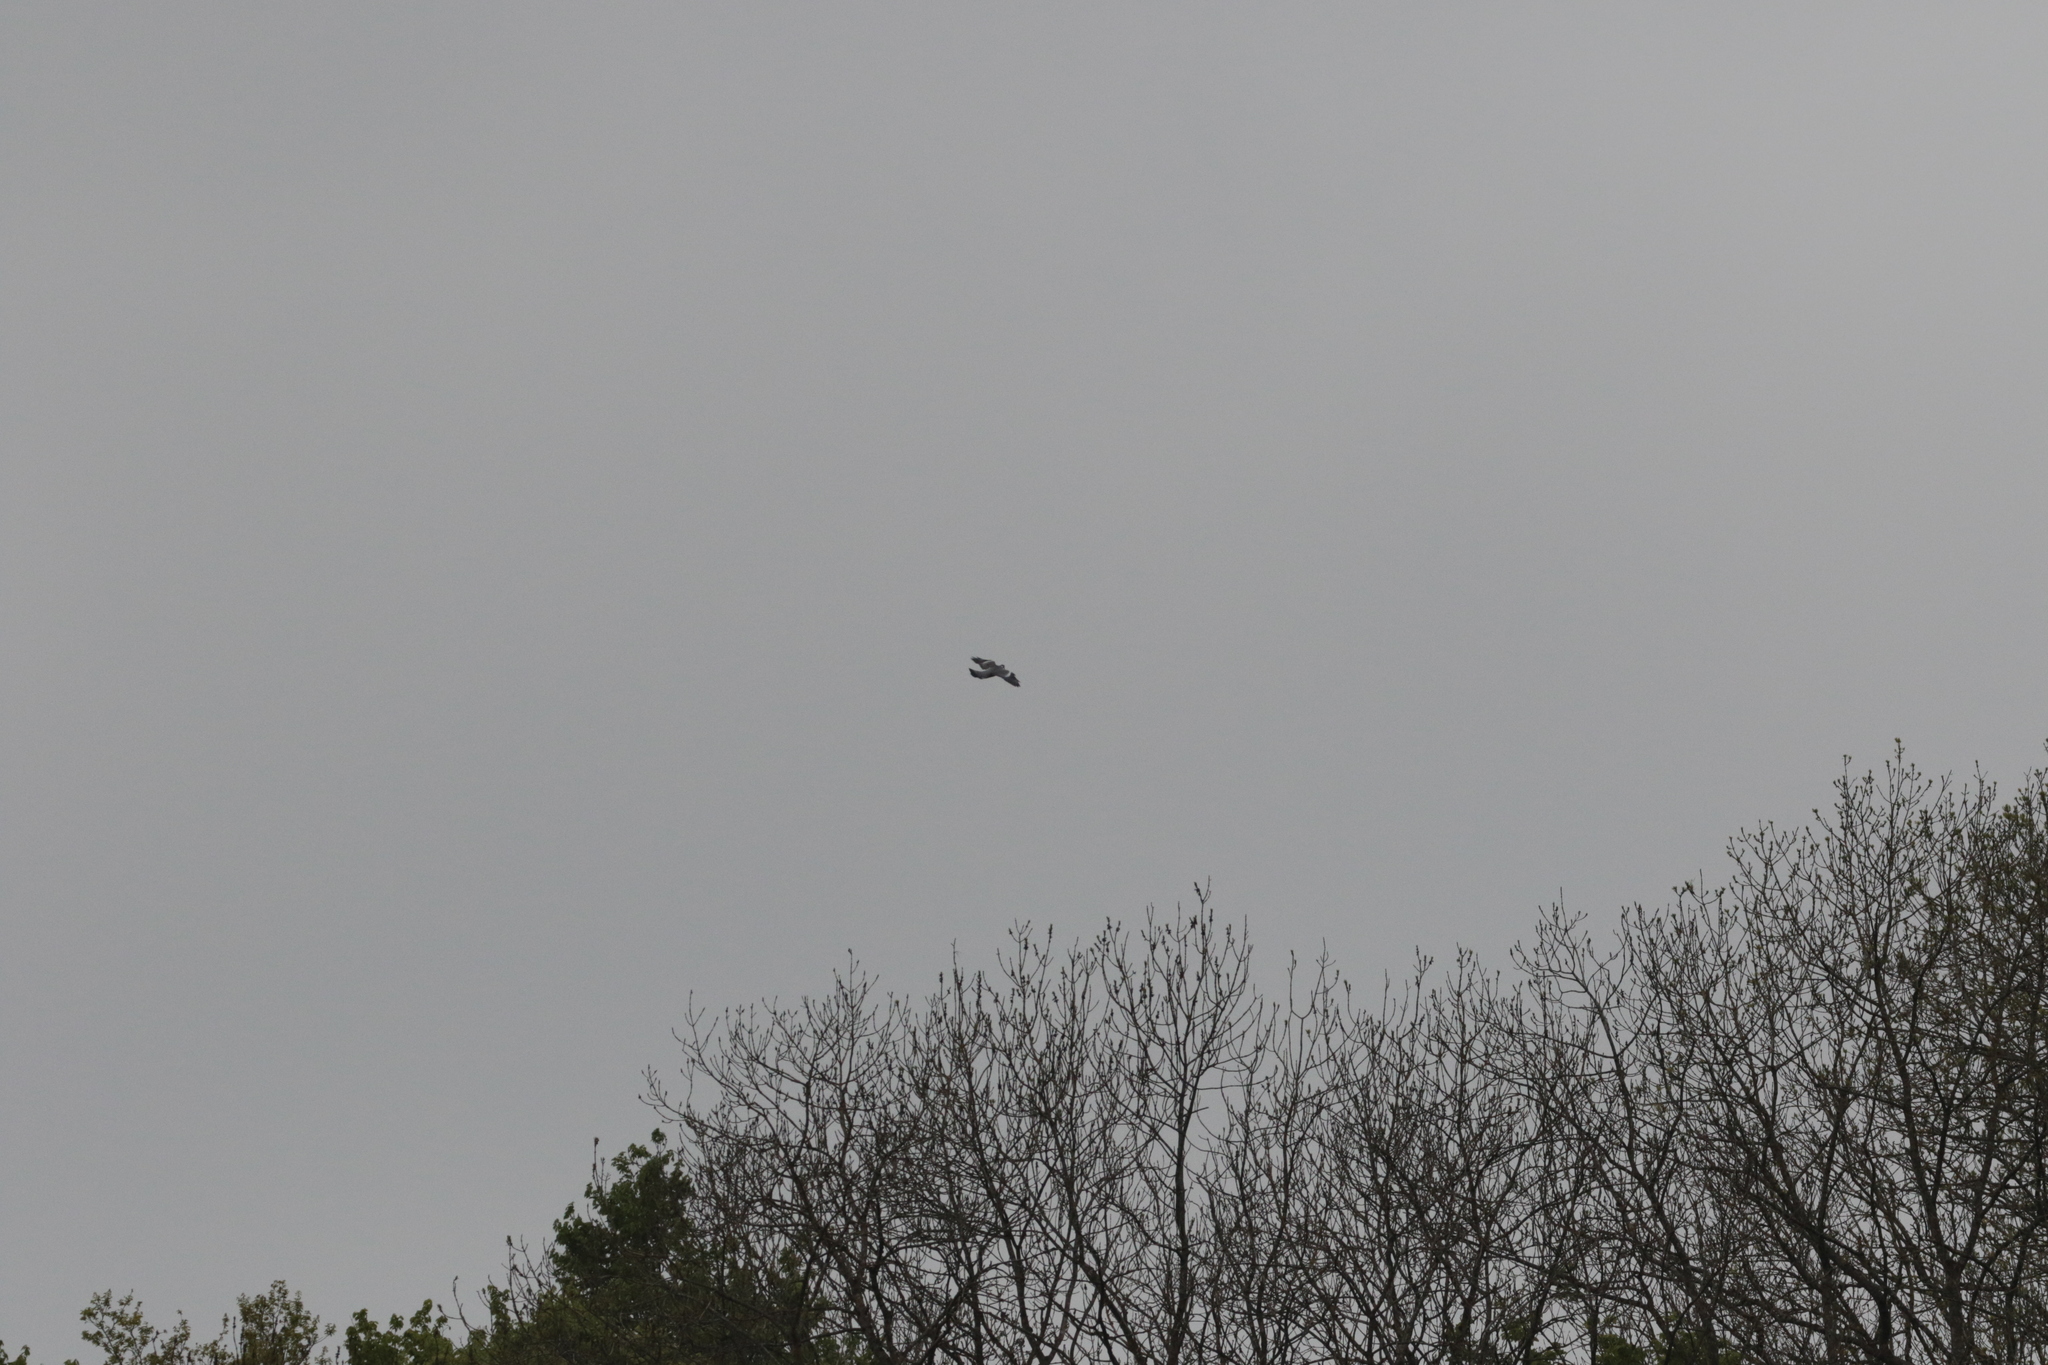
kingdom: Animalia
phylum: Chordata
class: Aves
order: Columbiformes
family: Columbidae
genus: Columba
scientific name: Columba palumbus
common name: Common wood pigeon
